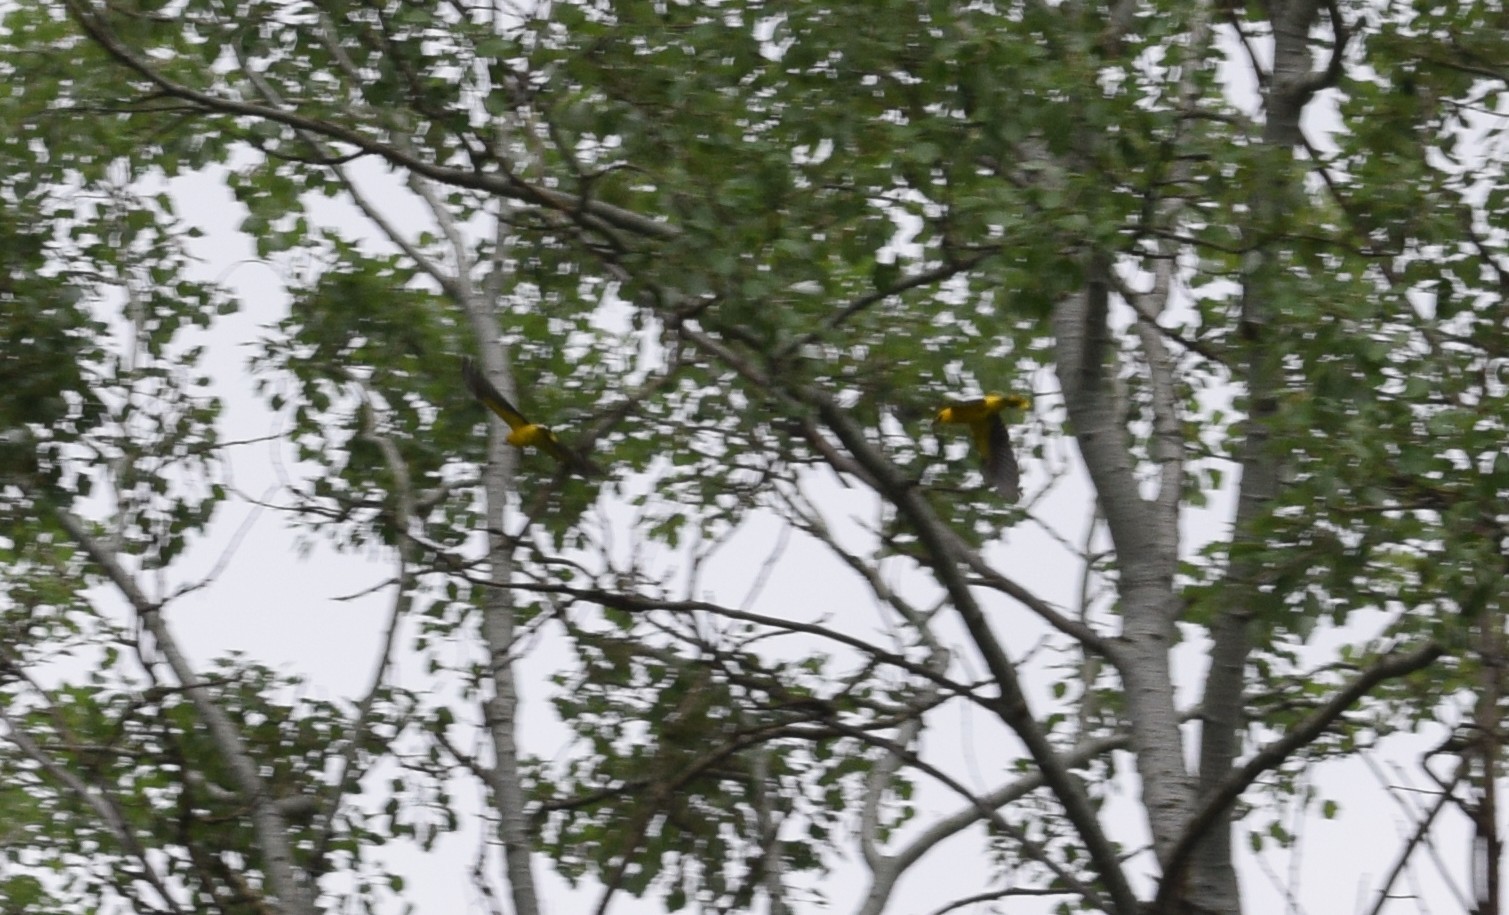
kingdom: Animalia
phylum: Chordata
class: Aves
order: Passeriformes
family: Oriolidae
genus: Oriolus
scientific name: Oriolus oriolus
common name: Eurasian golden oriole
